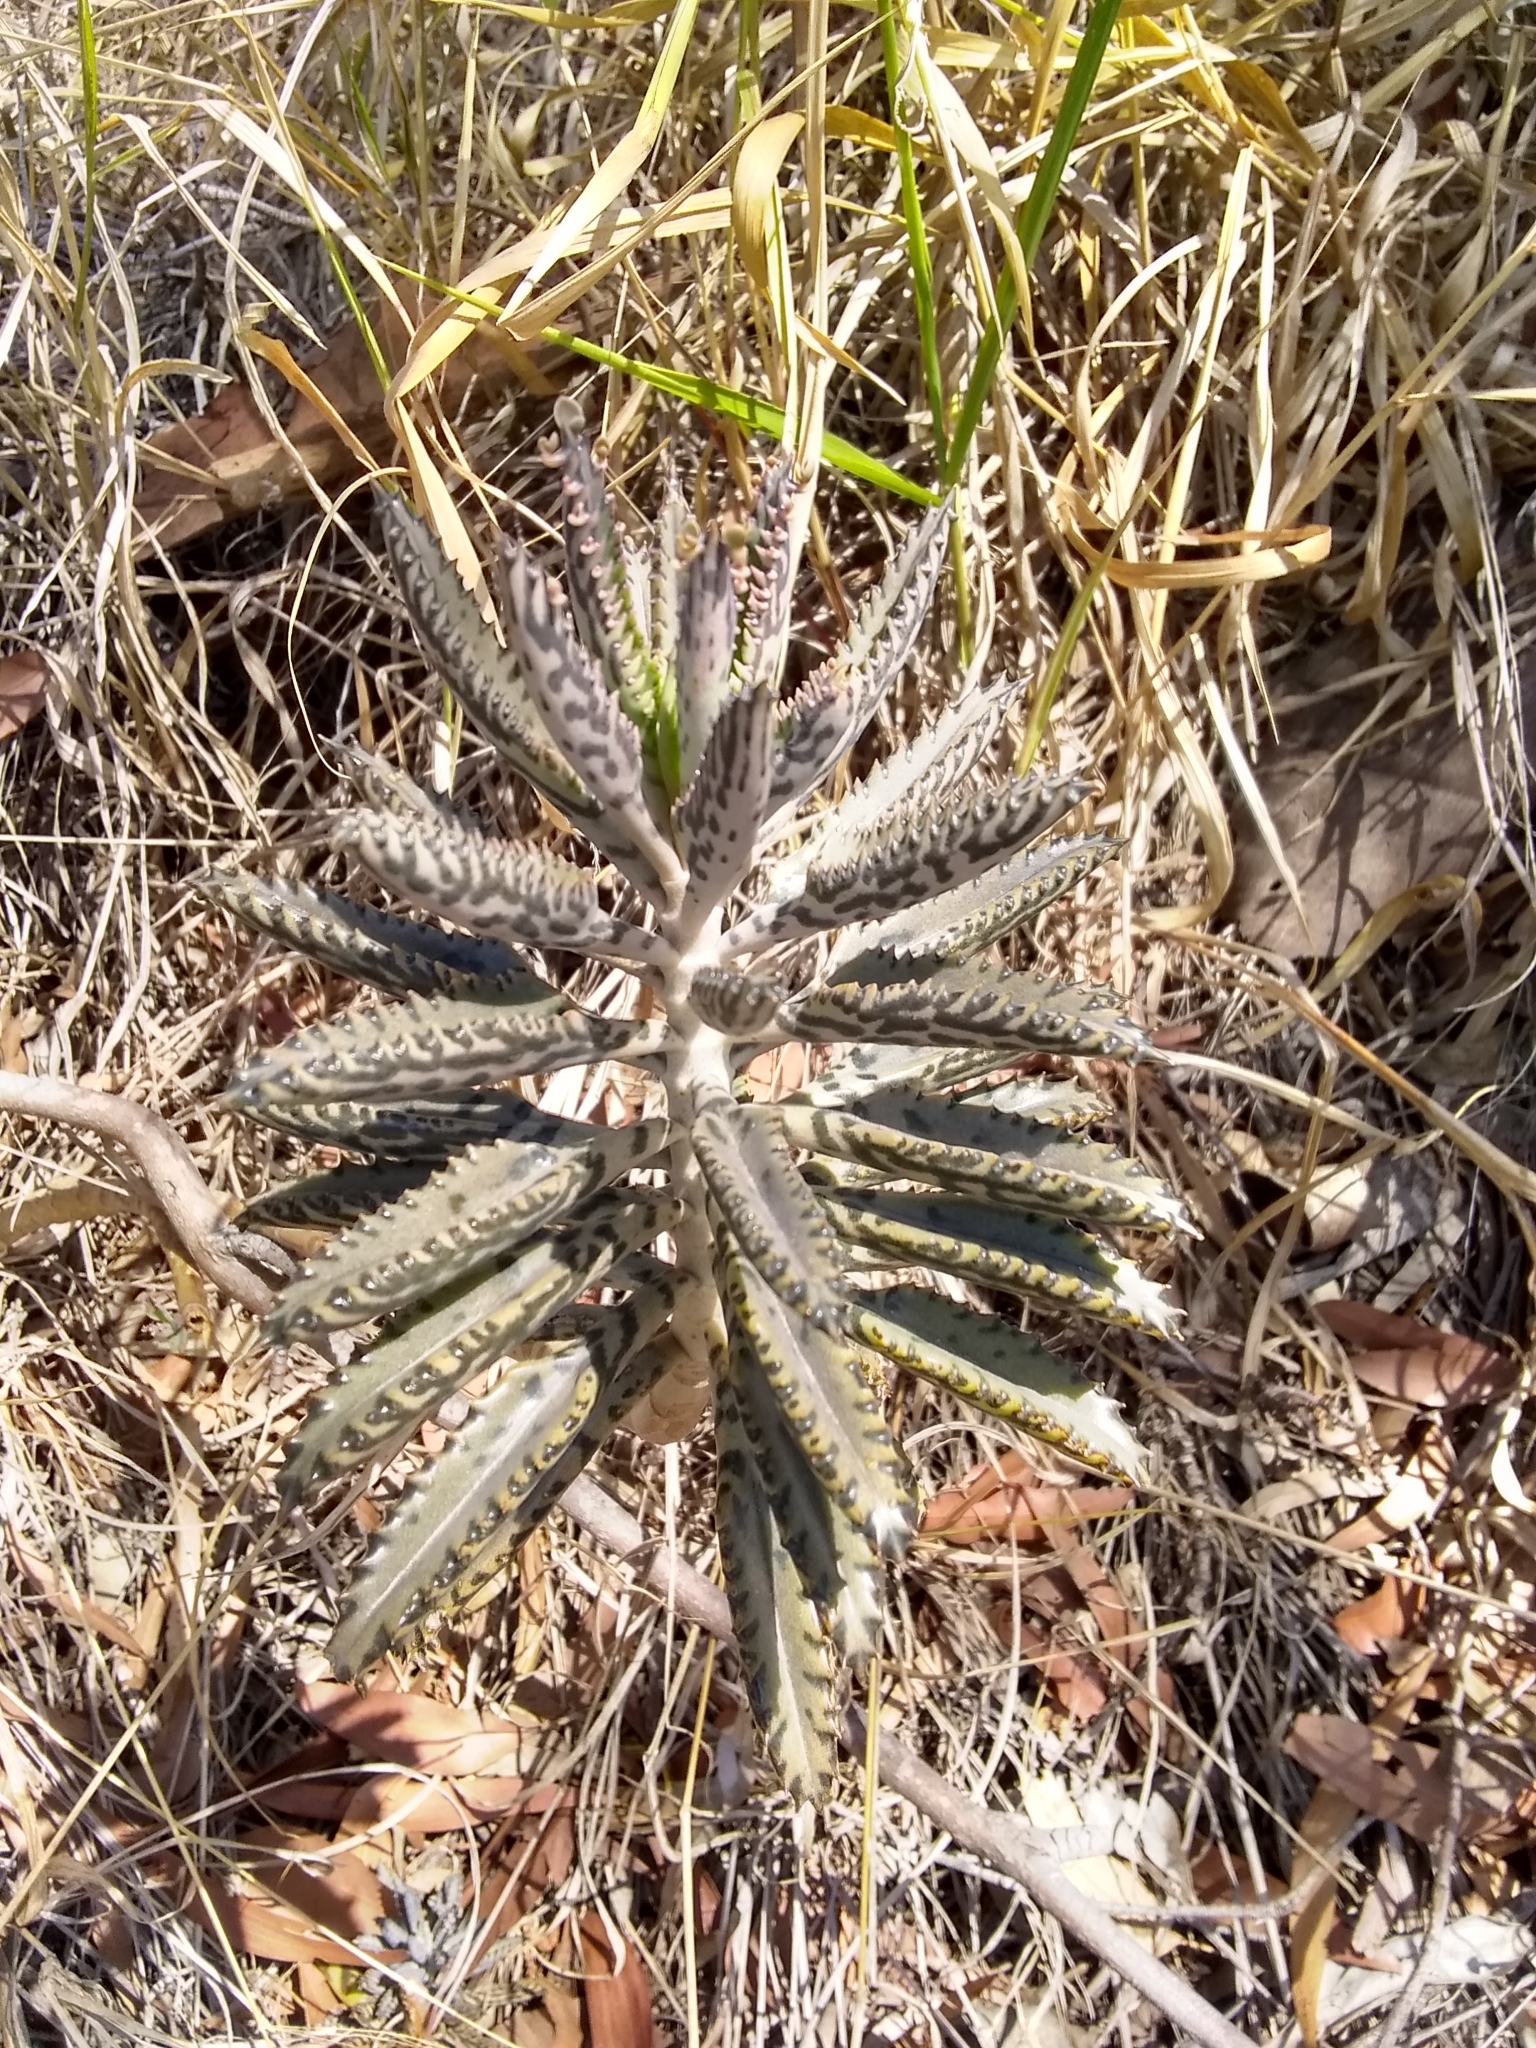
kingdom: Plantae
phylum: Tracheophyta
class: Magnoliopsida
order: Saxifragales
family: Crassulaceae
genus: Kalanchoe
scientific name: Kalanchoe houghtonii
